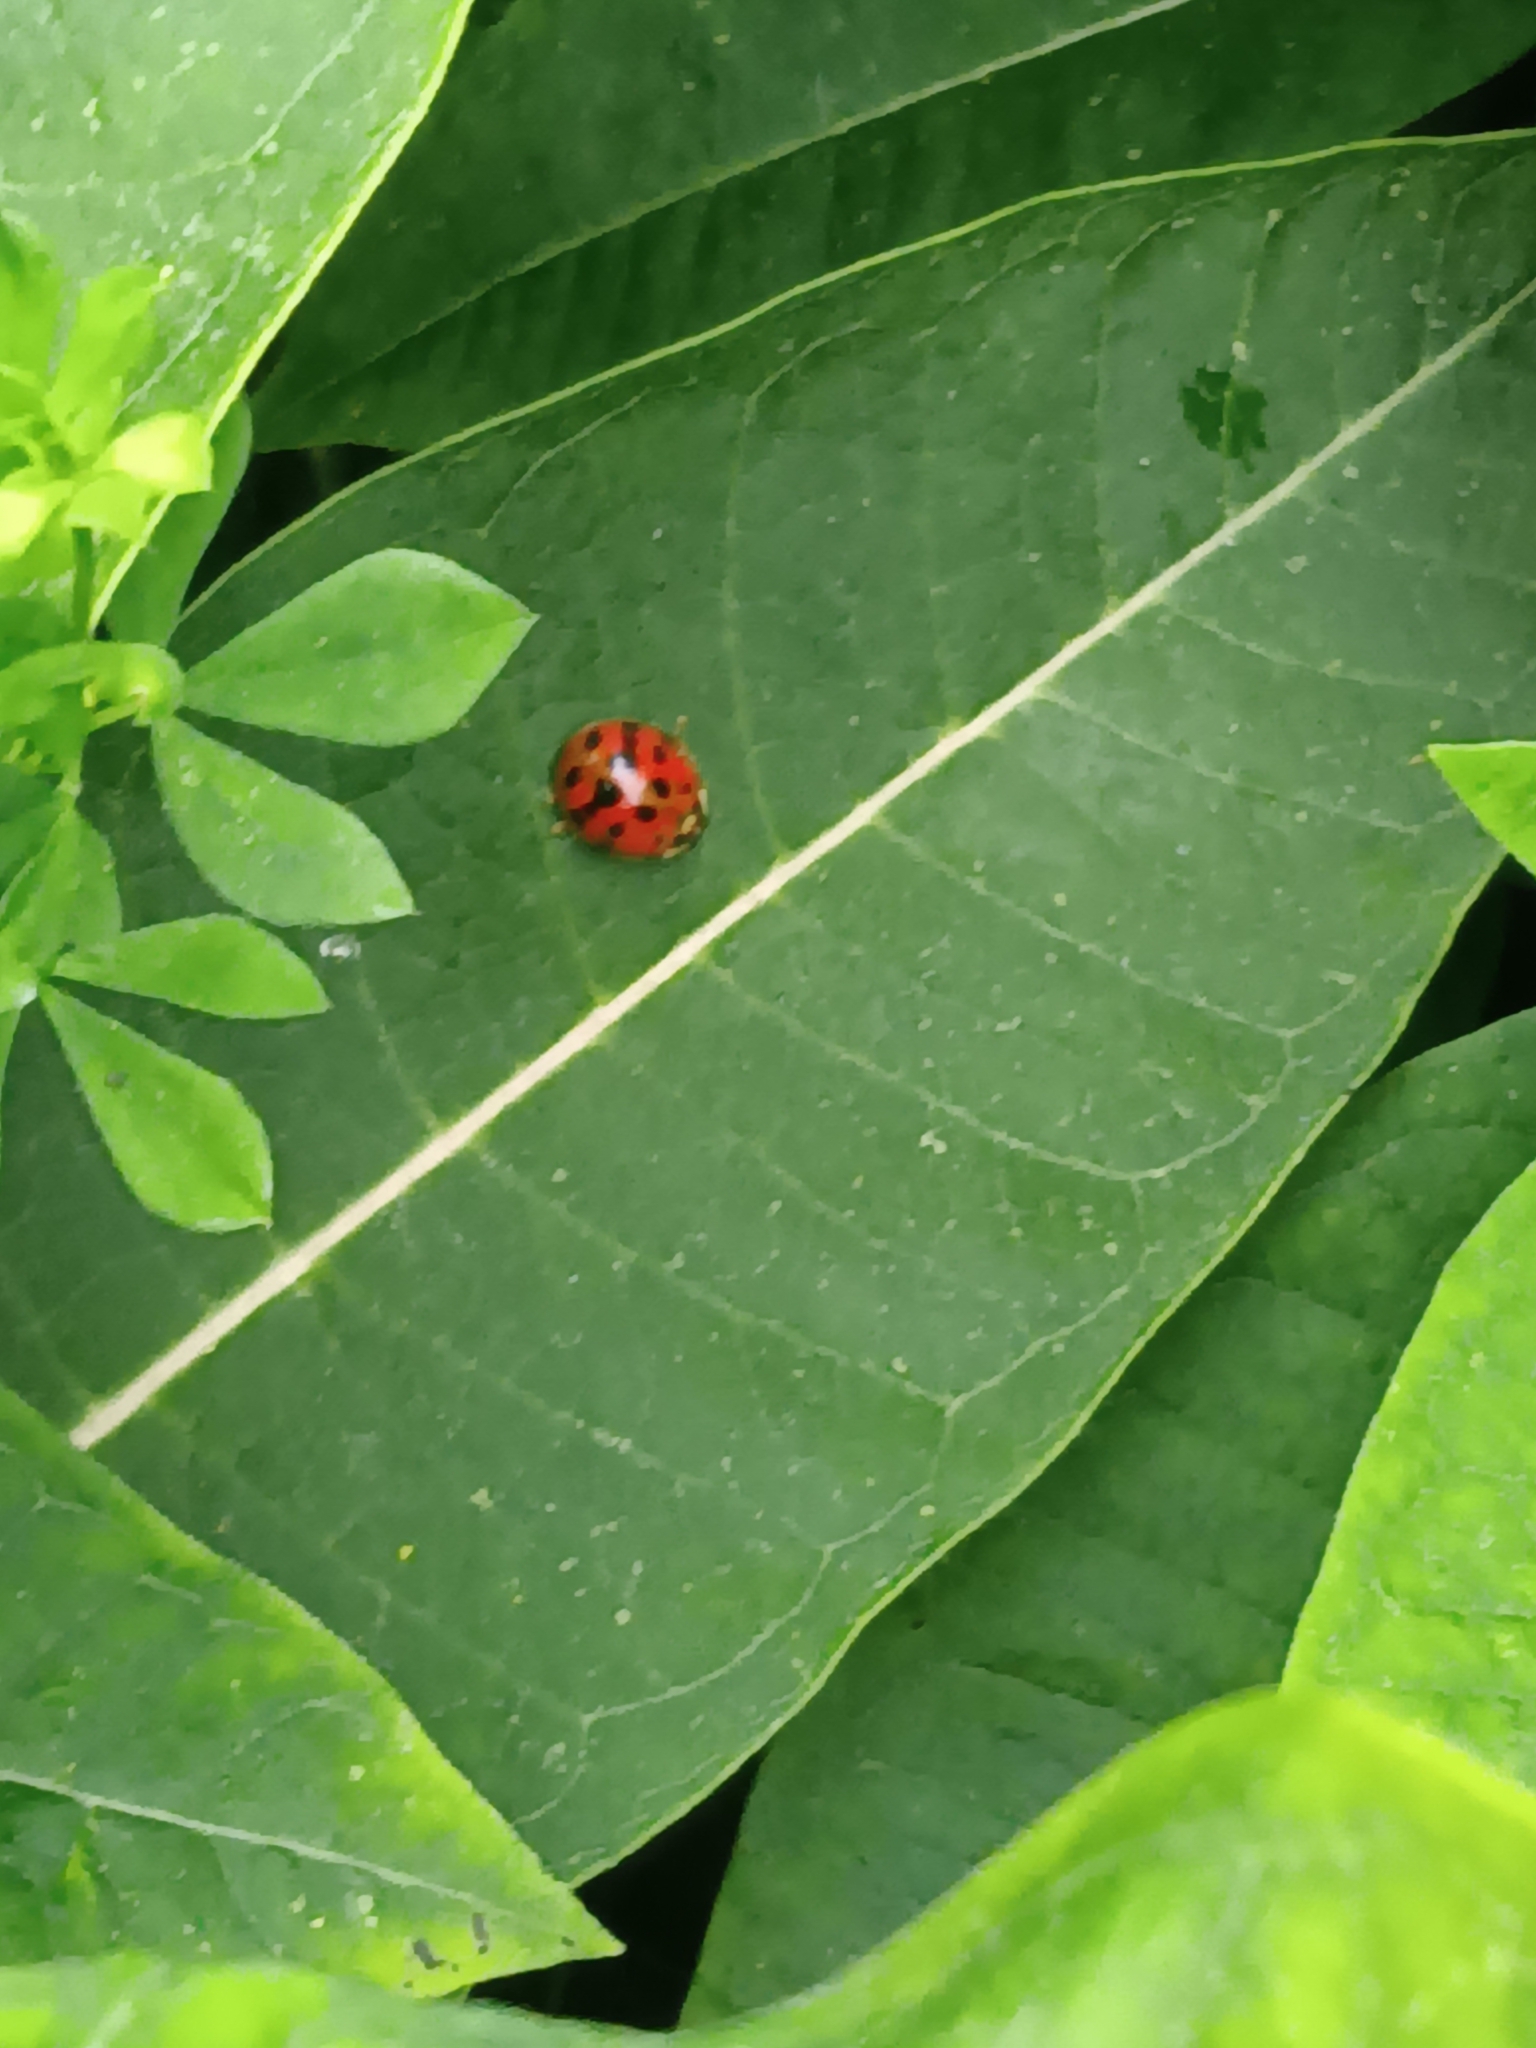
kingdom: Animalia
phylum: Arthropoda
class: Insecta
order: Coleoptera
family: Coccinellidae
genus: Harmonia
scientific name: Harmonia axyridis
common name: Harlequin ladybird
